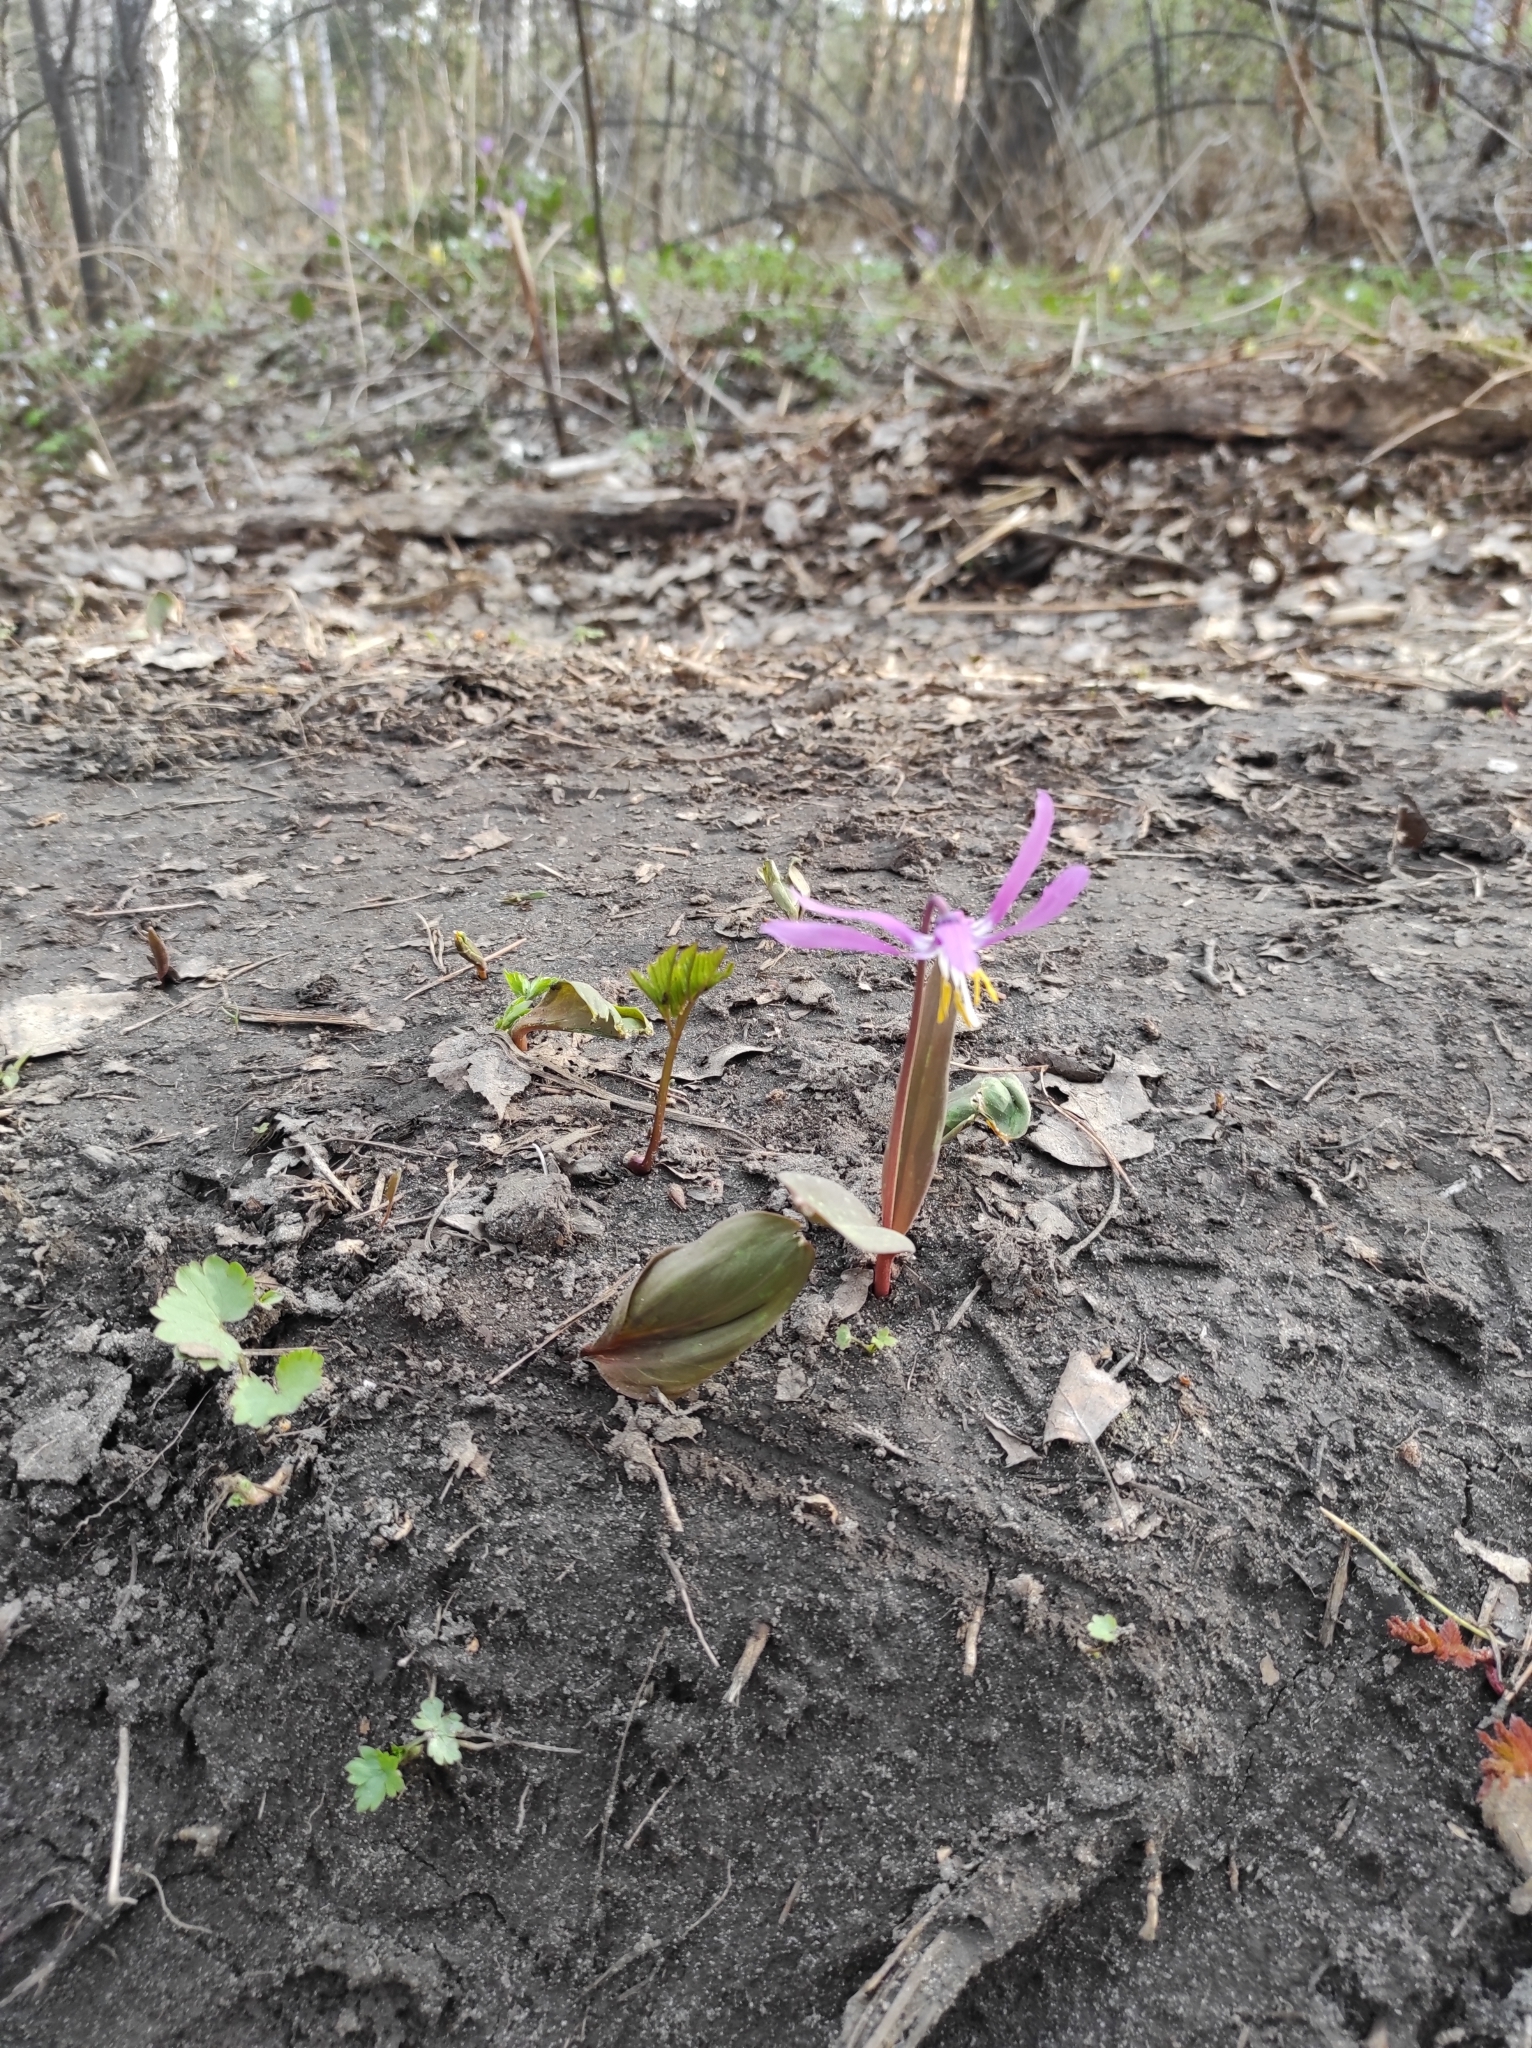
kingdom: Plantae
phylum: Tracheophyta
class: Liliopsida
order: Liliales
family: Liliaceae
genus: Erythronium
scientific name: Erythronium sibiricum
